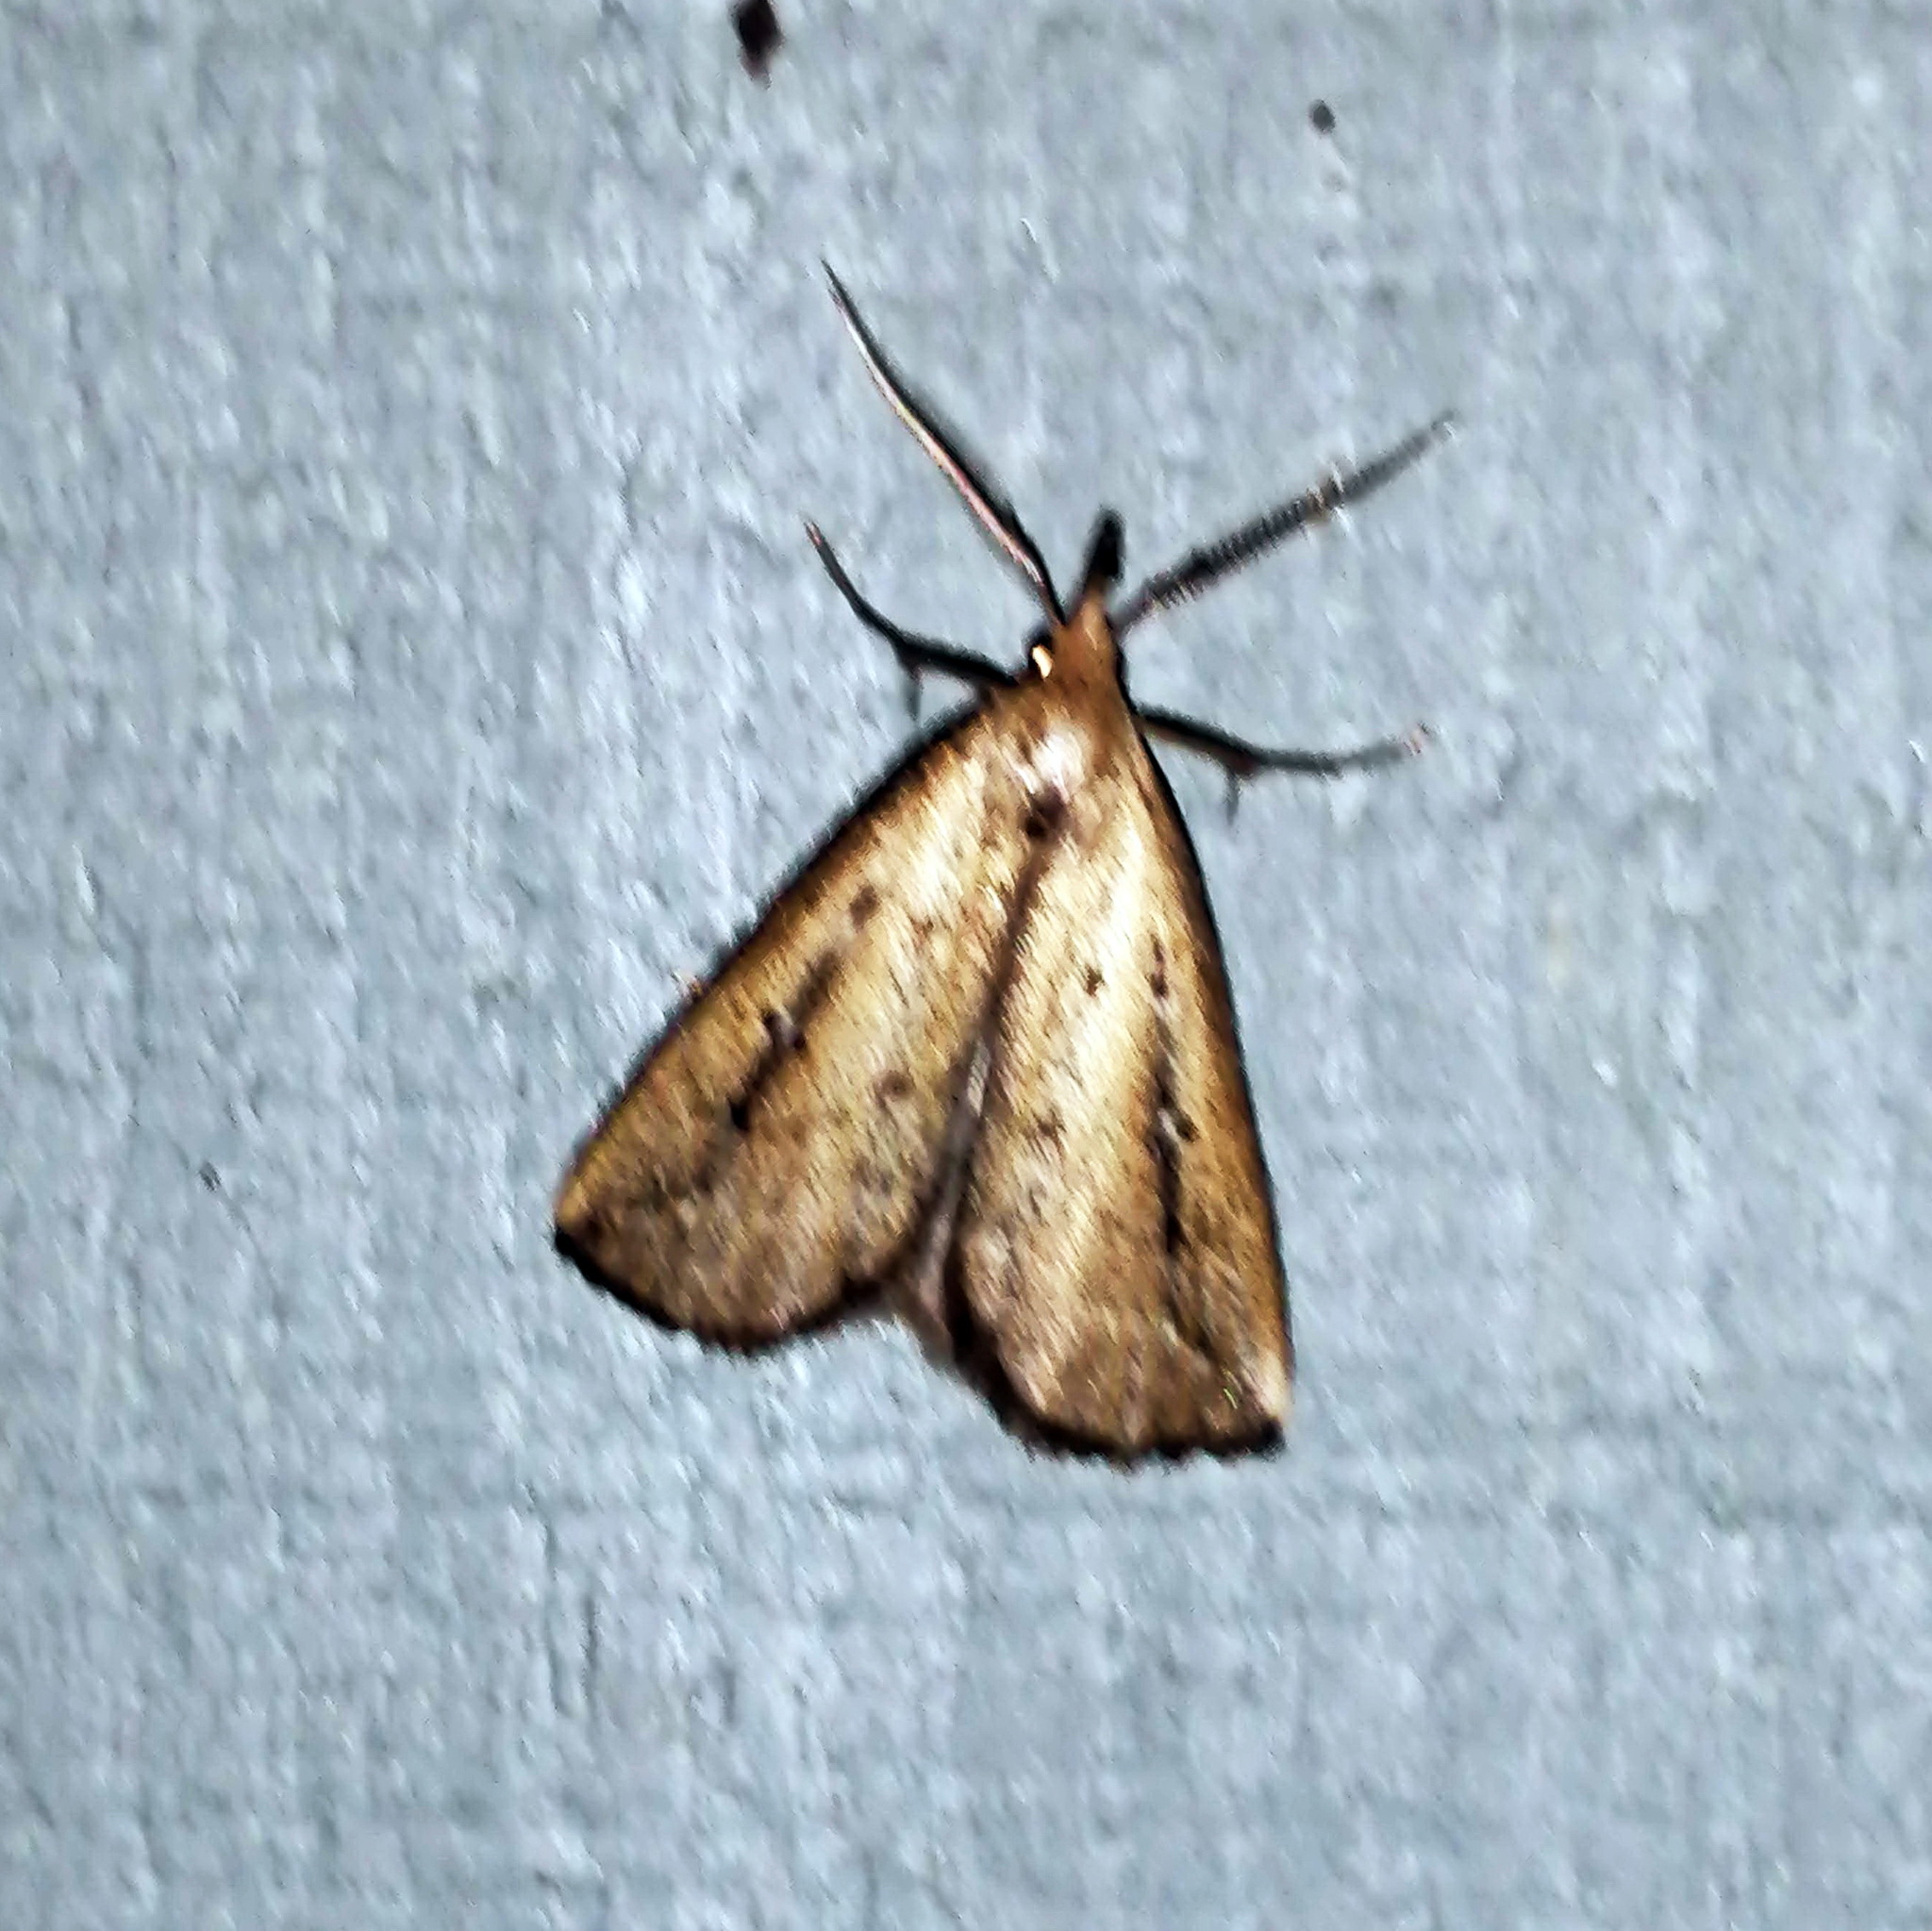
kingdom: Animalia
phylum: Arthropoda
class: Insecta
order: Lepidoptera
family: Erebidae
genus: Macrochilo
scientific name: Macrochilo orciferalis
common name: Bronzy owlet
